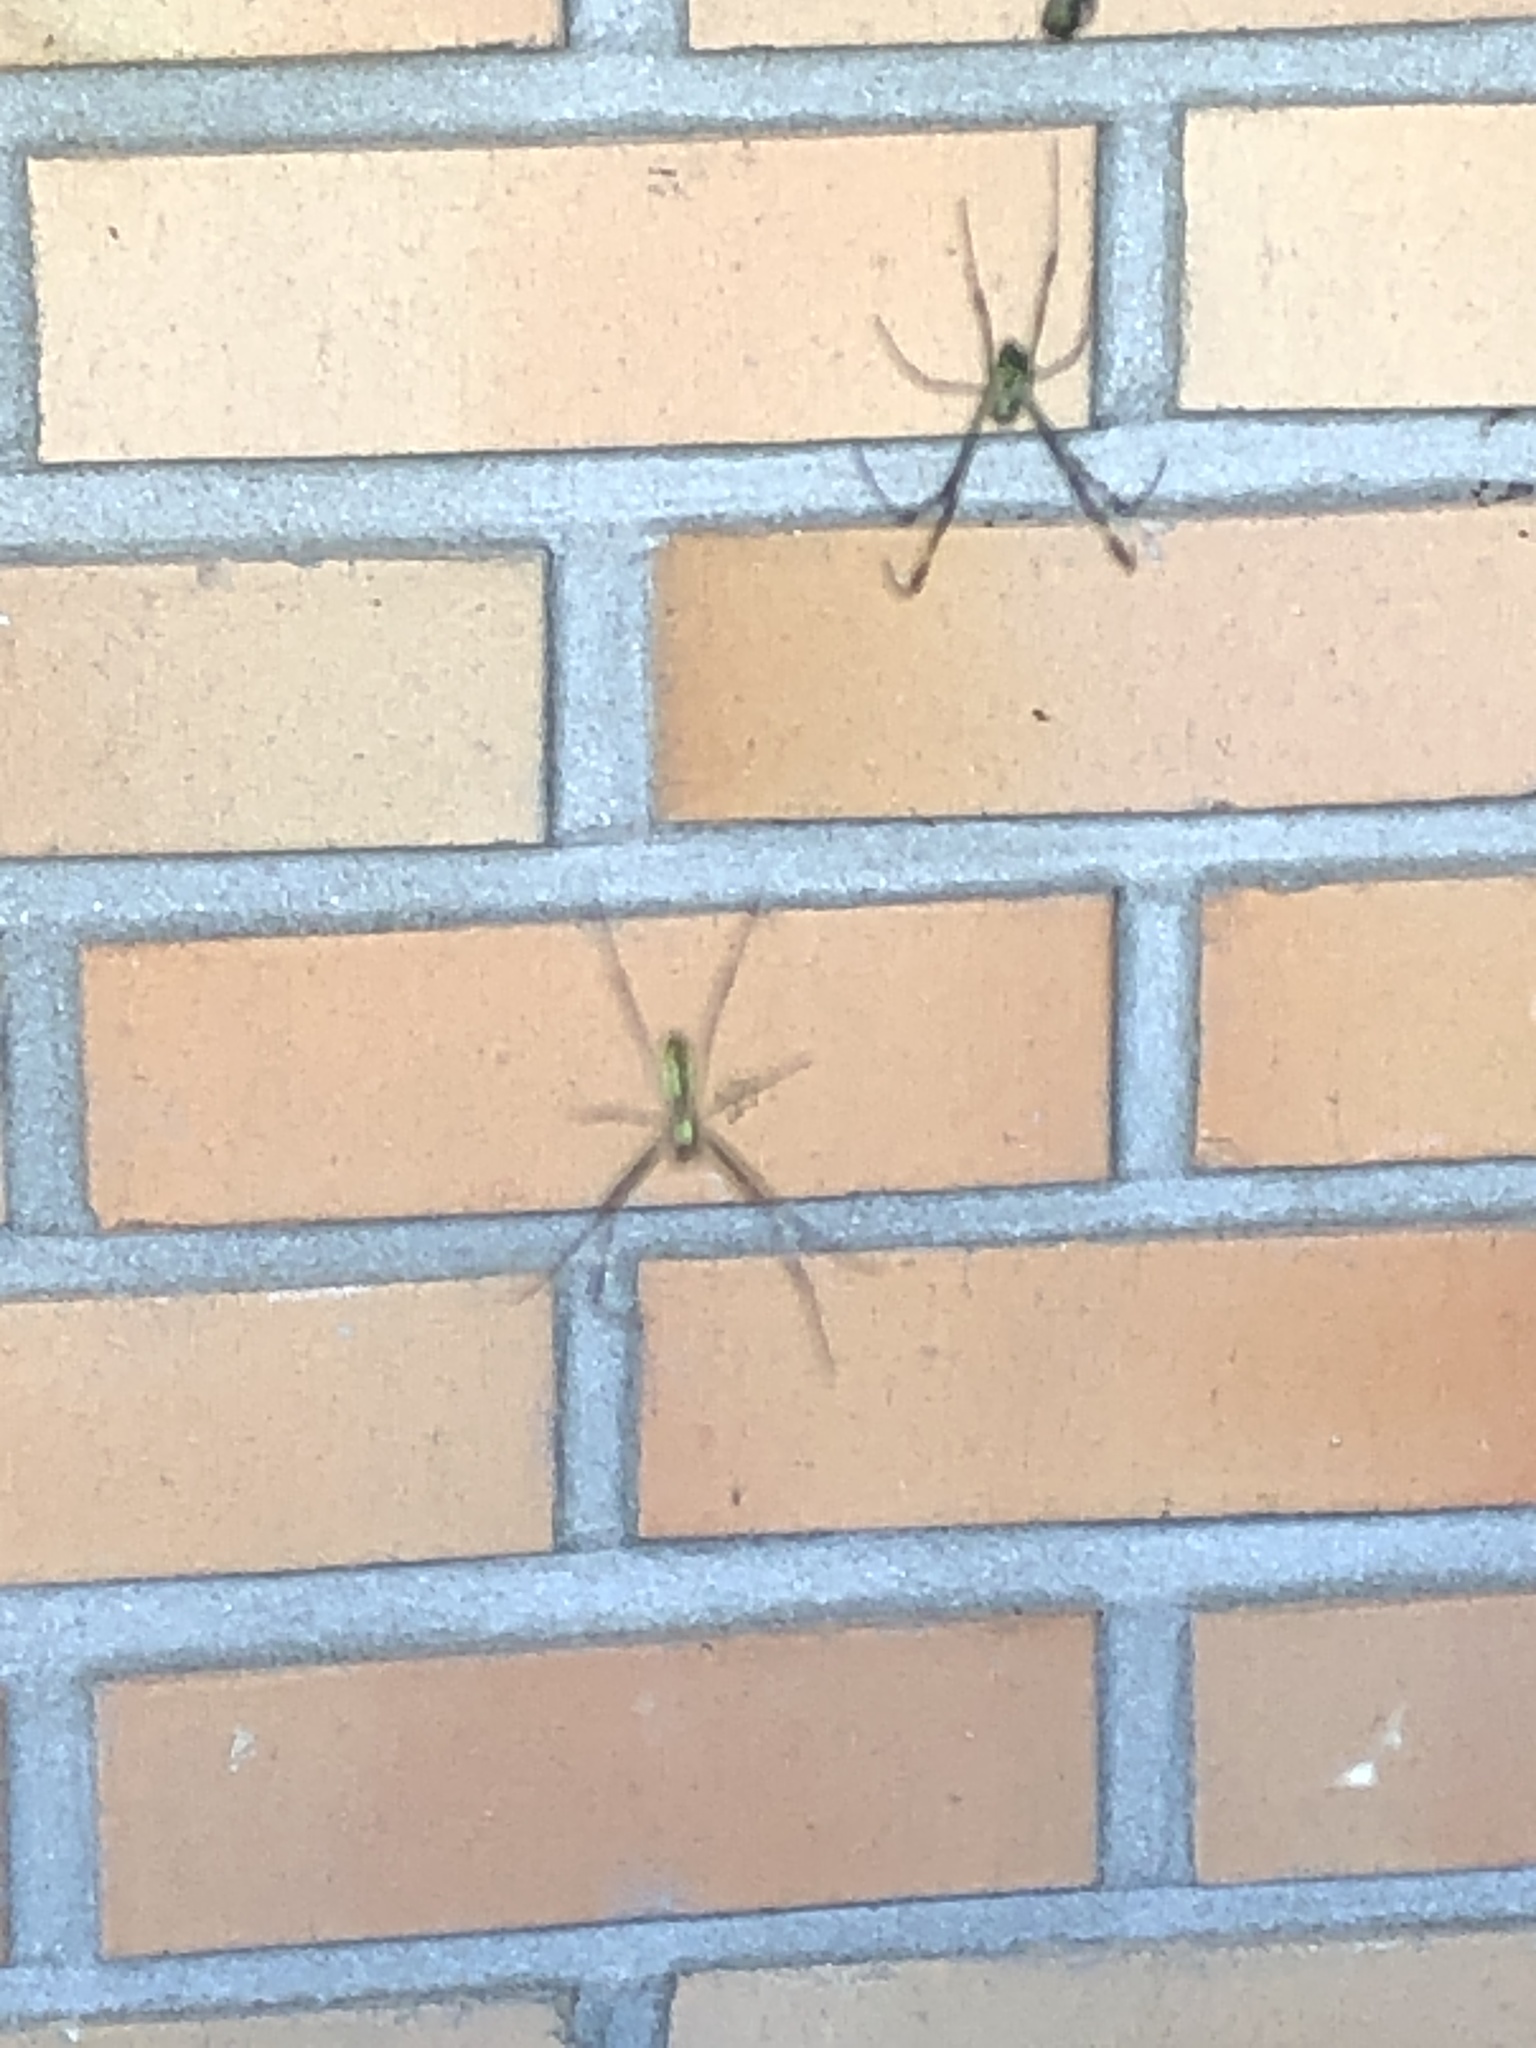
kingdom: Animalia
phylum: Arthropoda
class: Arachnida
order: Araneae
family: Araneidae
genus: Trichonephila
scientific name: Trichonephila clavata
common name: Jorō spider
